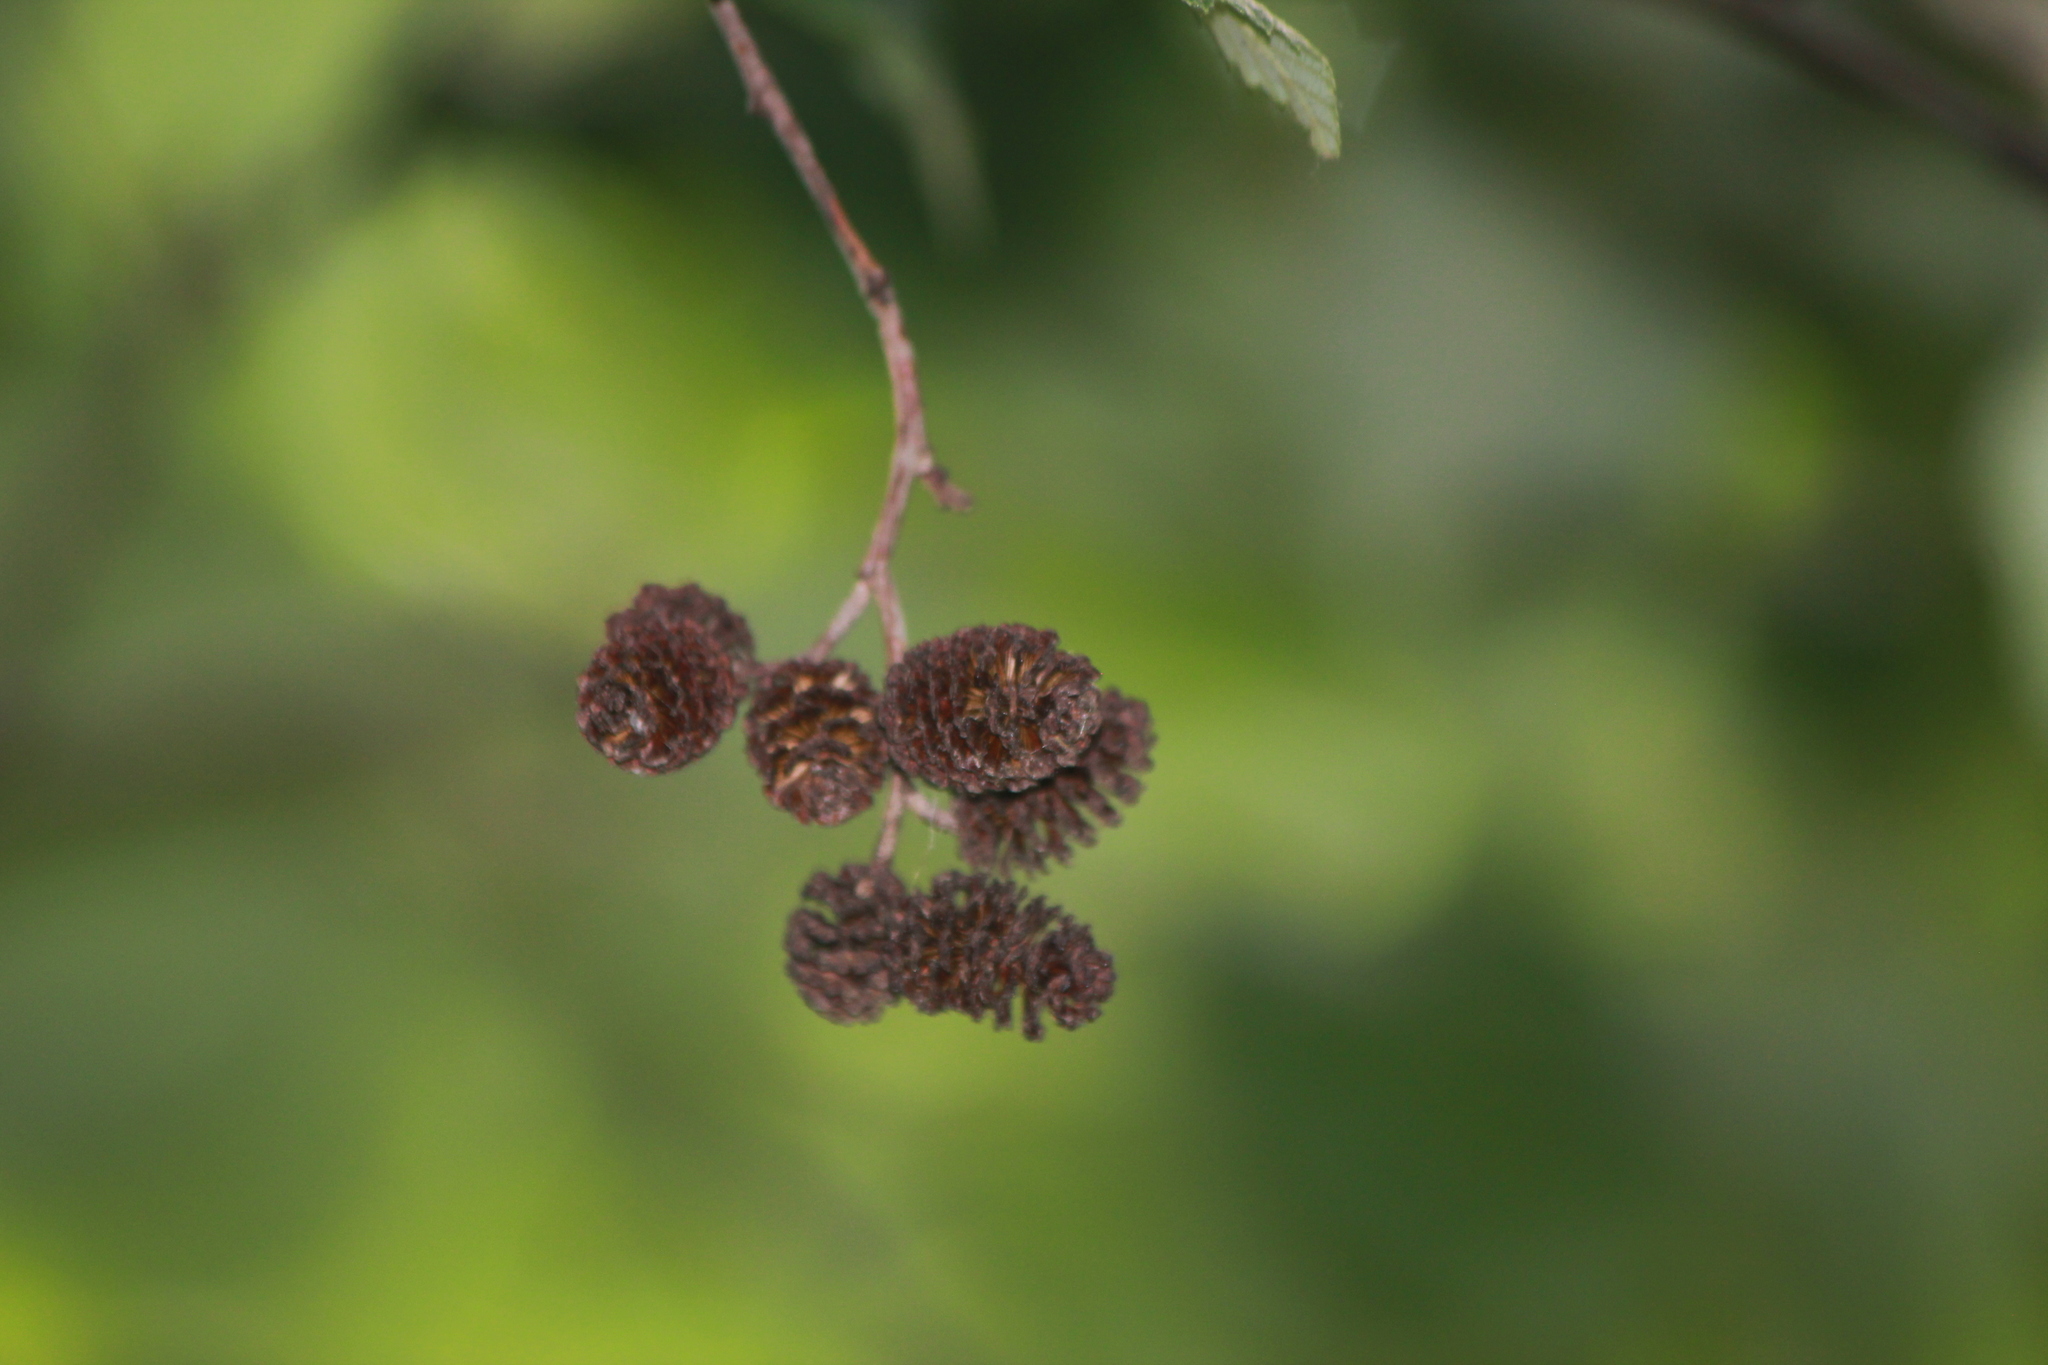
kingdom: Plantae
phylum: Tracheophyta
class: Magnoliopsida
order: Fagales
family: Betulaceae
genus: Alnus
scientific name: Alnus incana
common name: Grey alder
